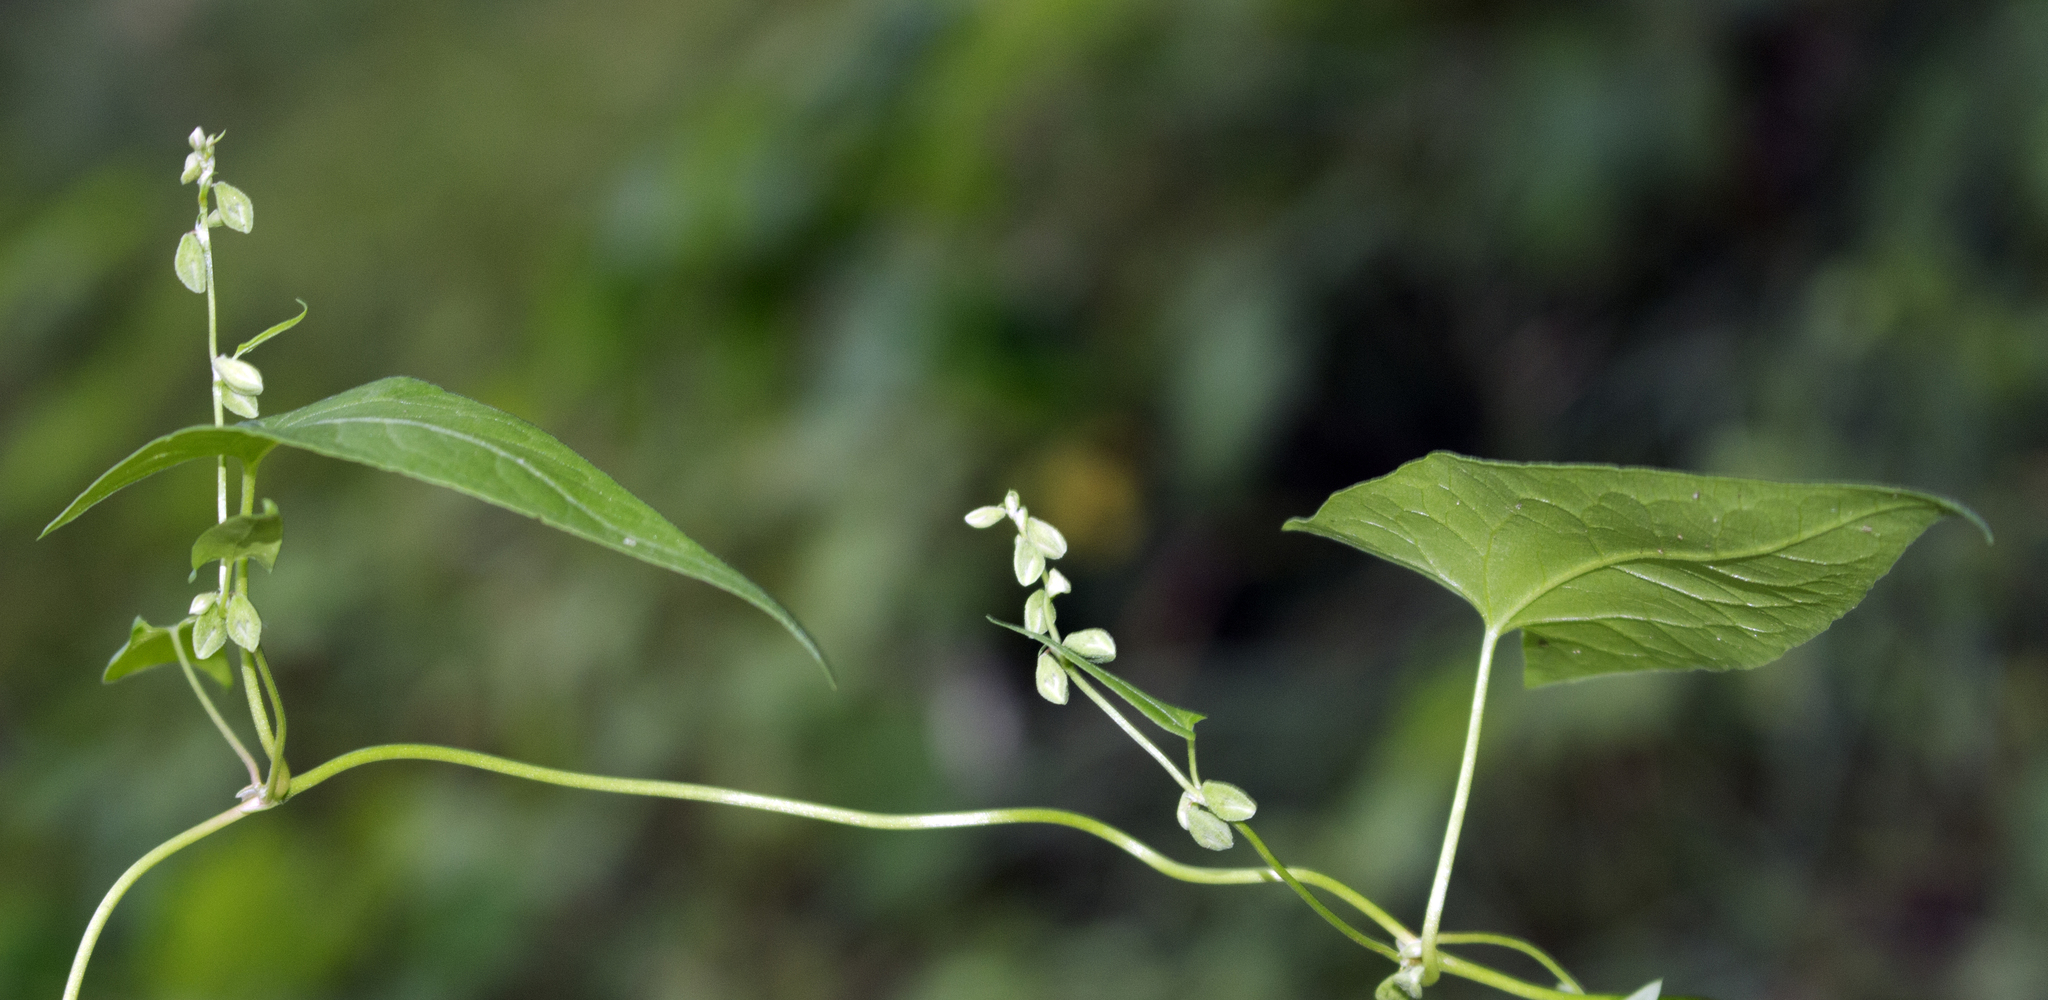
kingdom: Plantae
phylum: Tracheophyta
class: Magnoliopsida
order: Caryophyllales
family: Polygonaceae
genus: Fallopia
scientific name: Fallopia scandens
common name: Climbing false buckwheat
